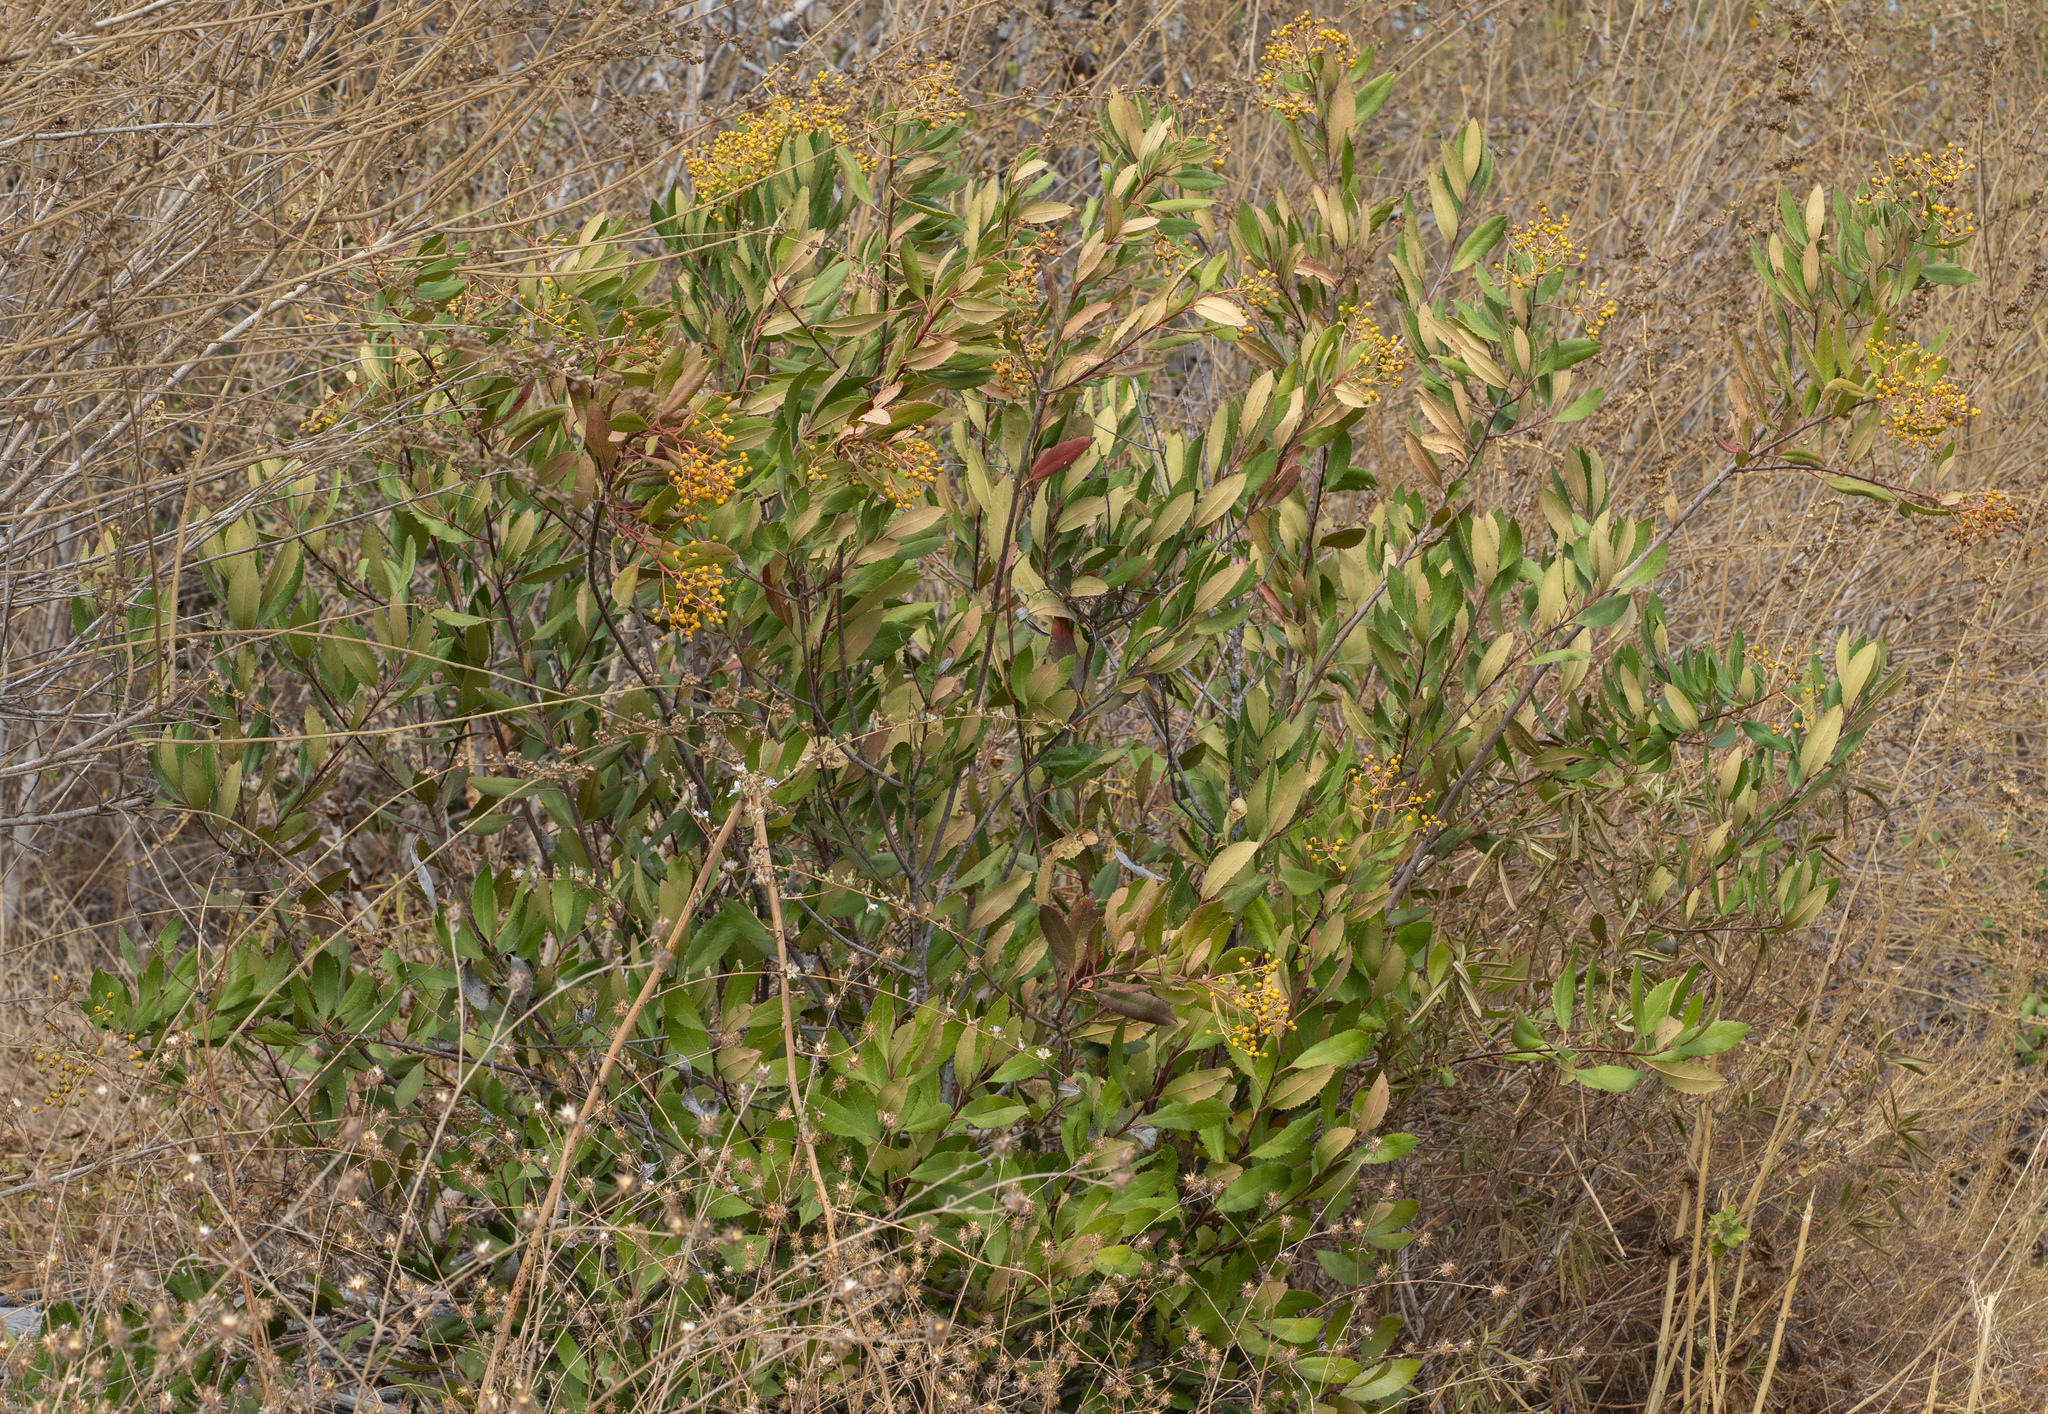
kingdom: Plantae
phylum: Tracheophyta
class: Magnoliopsida
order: Rosales
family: Rosaceae
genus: Heteromeles
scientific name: Heteromeles arbutifolia
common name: California-holly
